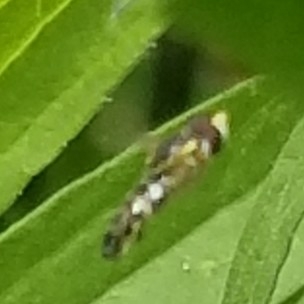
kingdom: Animalia
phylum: Arthropoda
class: Insecta
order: Diptera
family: Syrphidae
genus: Toxomerus
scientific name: Toxomerus geminatus
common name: Eastern calligrapher
